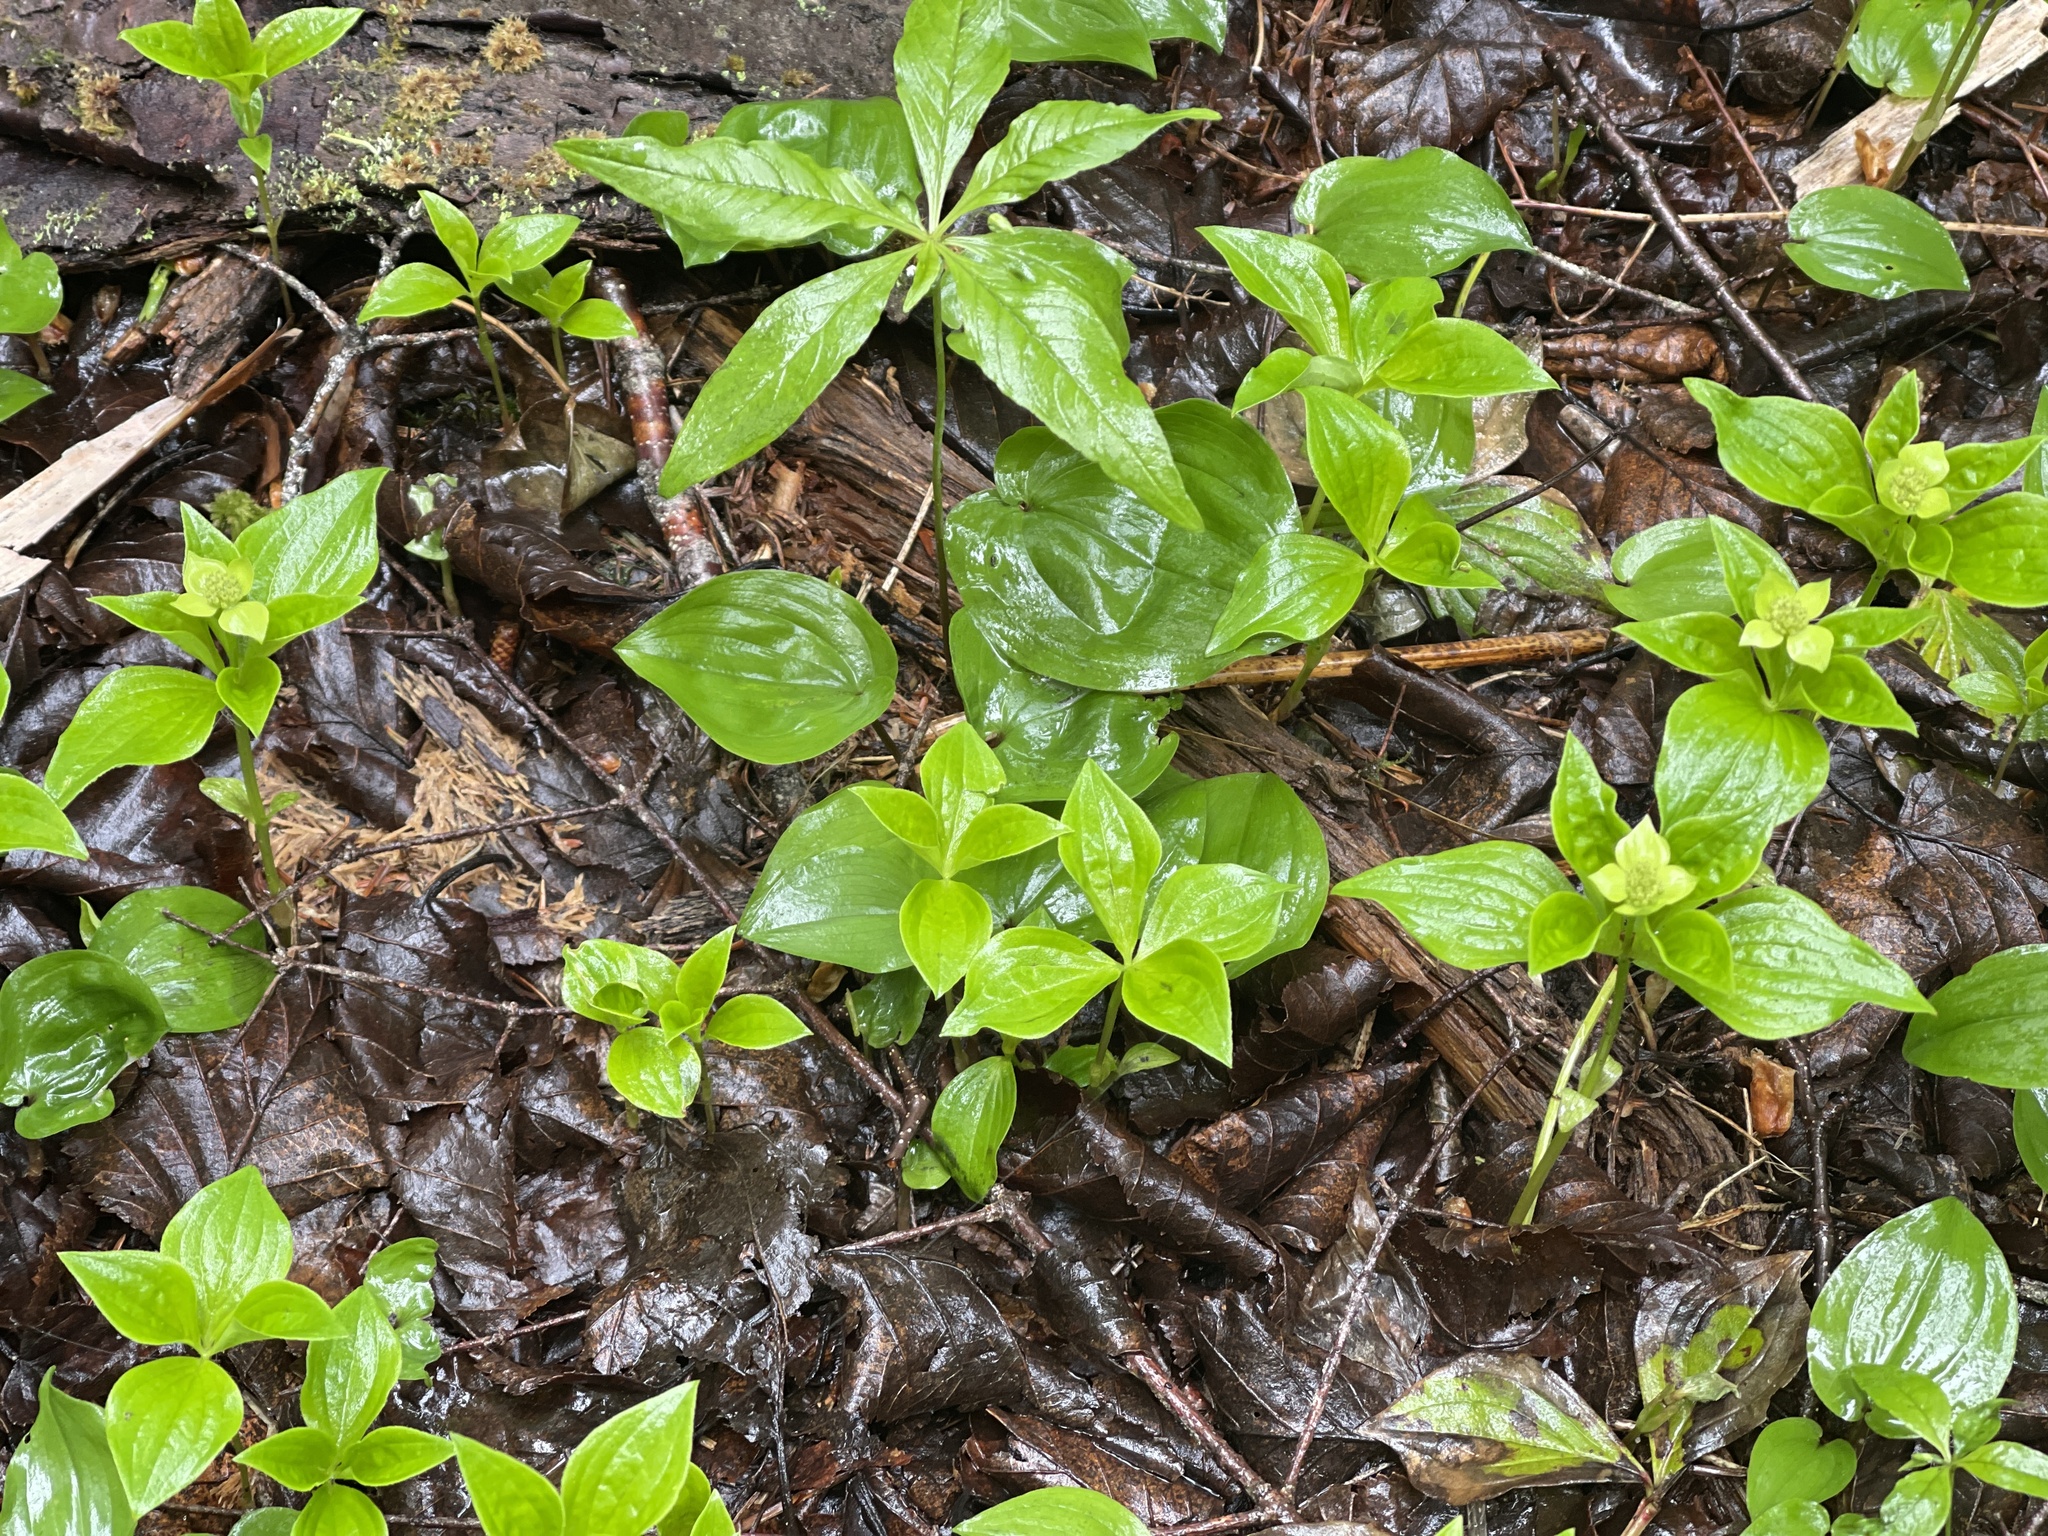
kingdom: Plantae
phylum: Tracheophyta
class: Magnoliopsida
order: Cornales
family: Cornaceae
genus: Cornus
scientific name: Cornus canadensis
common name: Creeping dogwood
